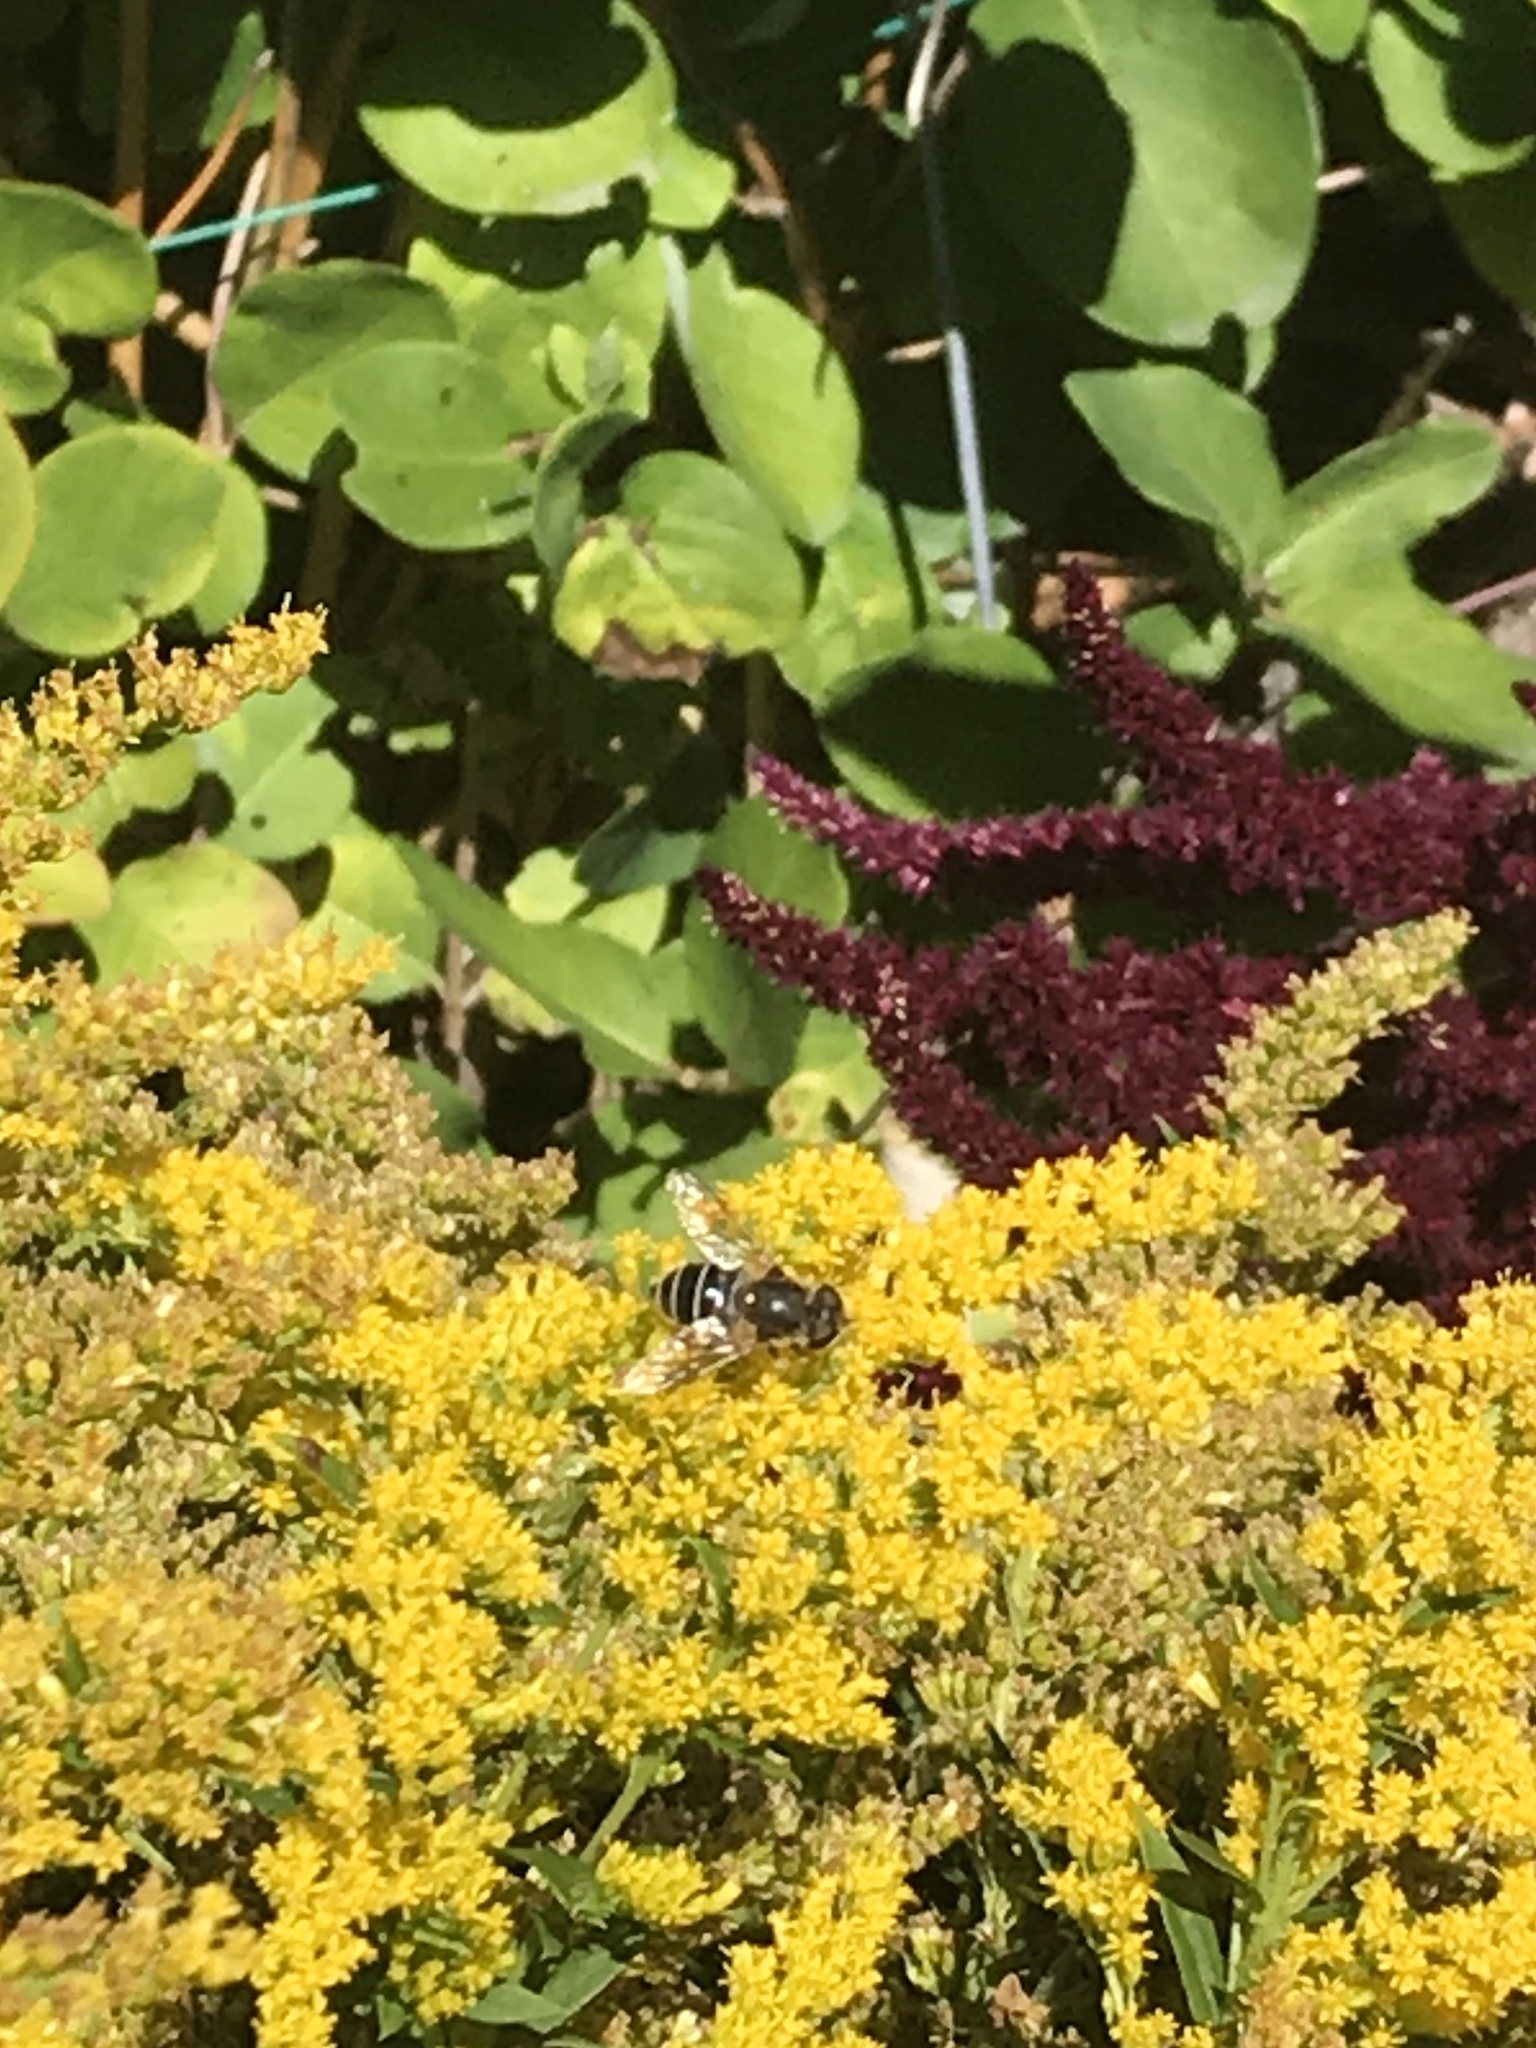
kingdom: Animalia
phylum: Arthropoda
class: Insecta
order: Diptera
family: Syrphidae
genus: Eoseristalis
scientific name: Eoseristalis
